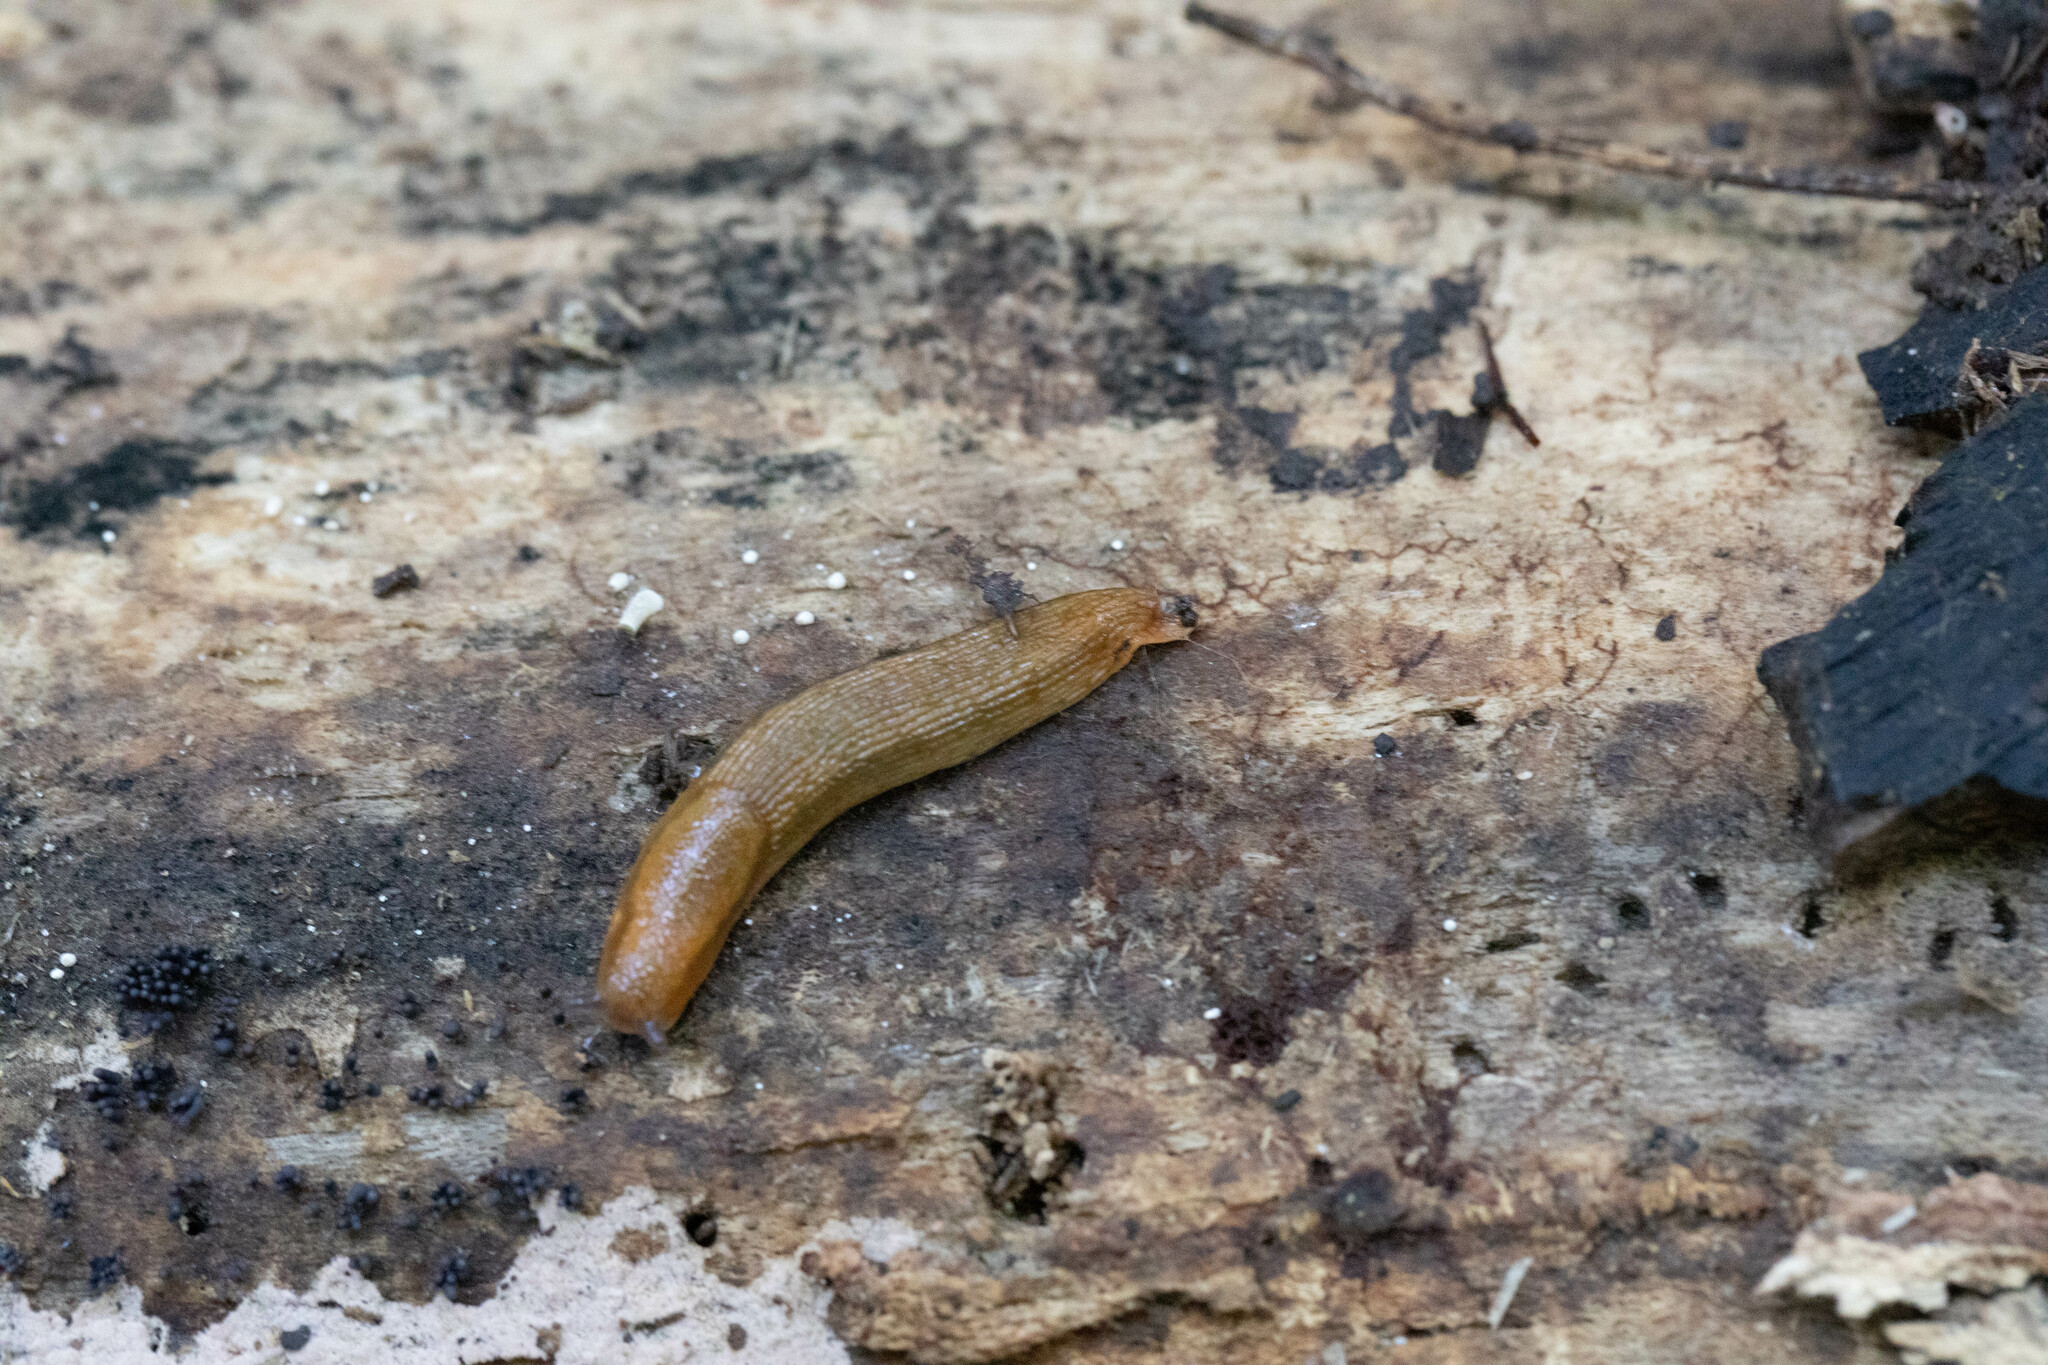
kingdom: Animalia
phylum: Mollusca
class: Gastropoda
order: Stylommatophora
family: Arionidae
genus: Arion
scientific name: Arion subfuscus
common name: Dusky arion
